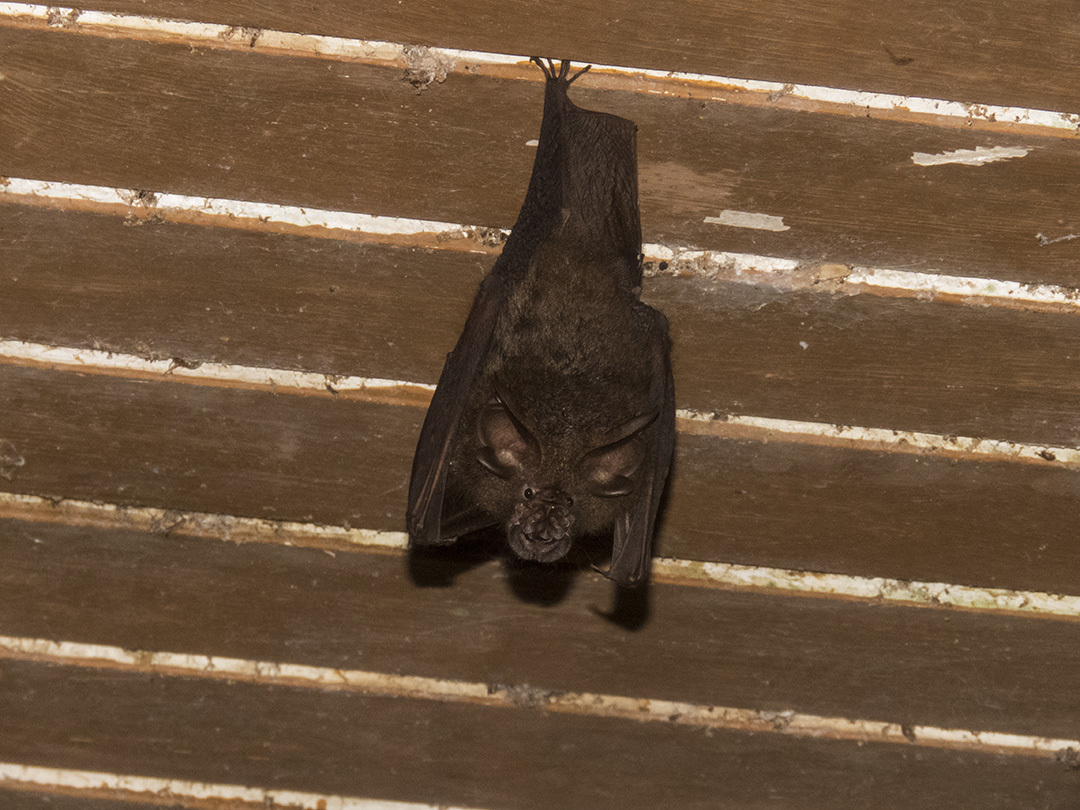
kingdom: Animalia
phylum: Chordata
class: Mammalia
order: Chiroptera
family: Rhinolophidae
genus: Rhinolophus
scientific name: Rhinolophus luctus
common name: Woolly horseshoe bat
